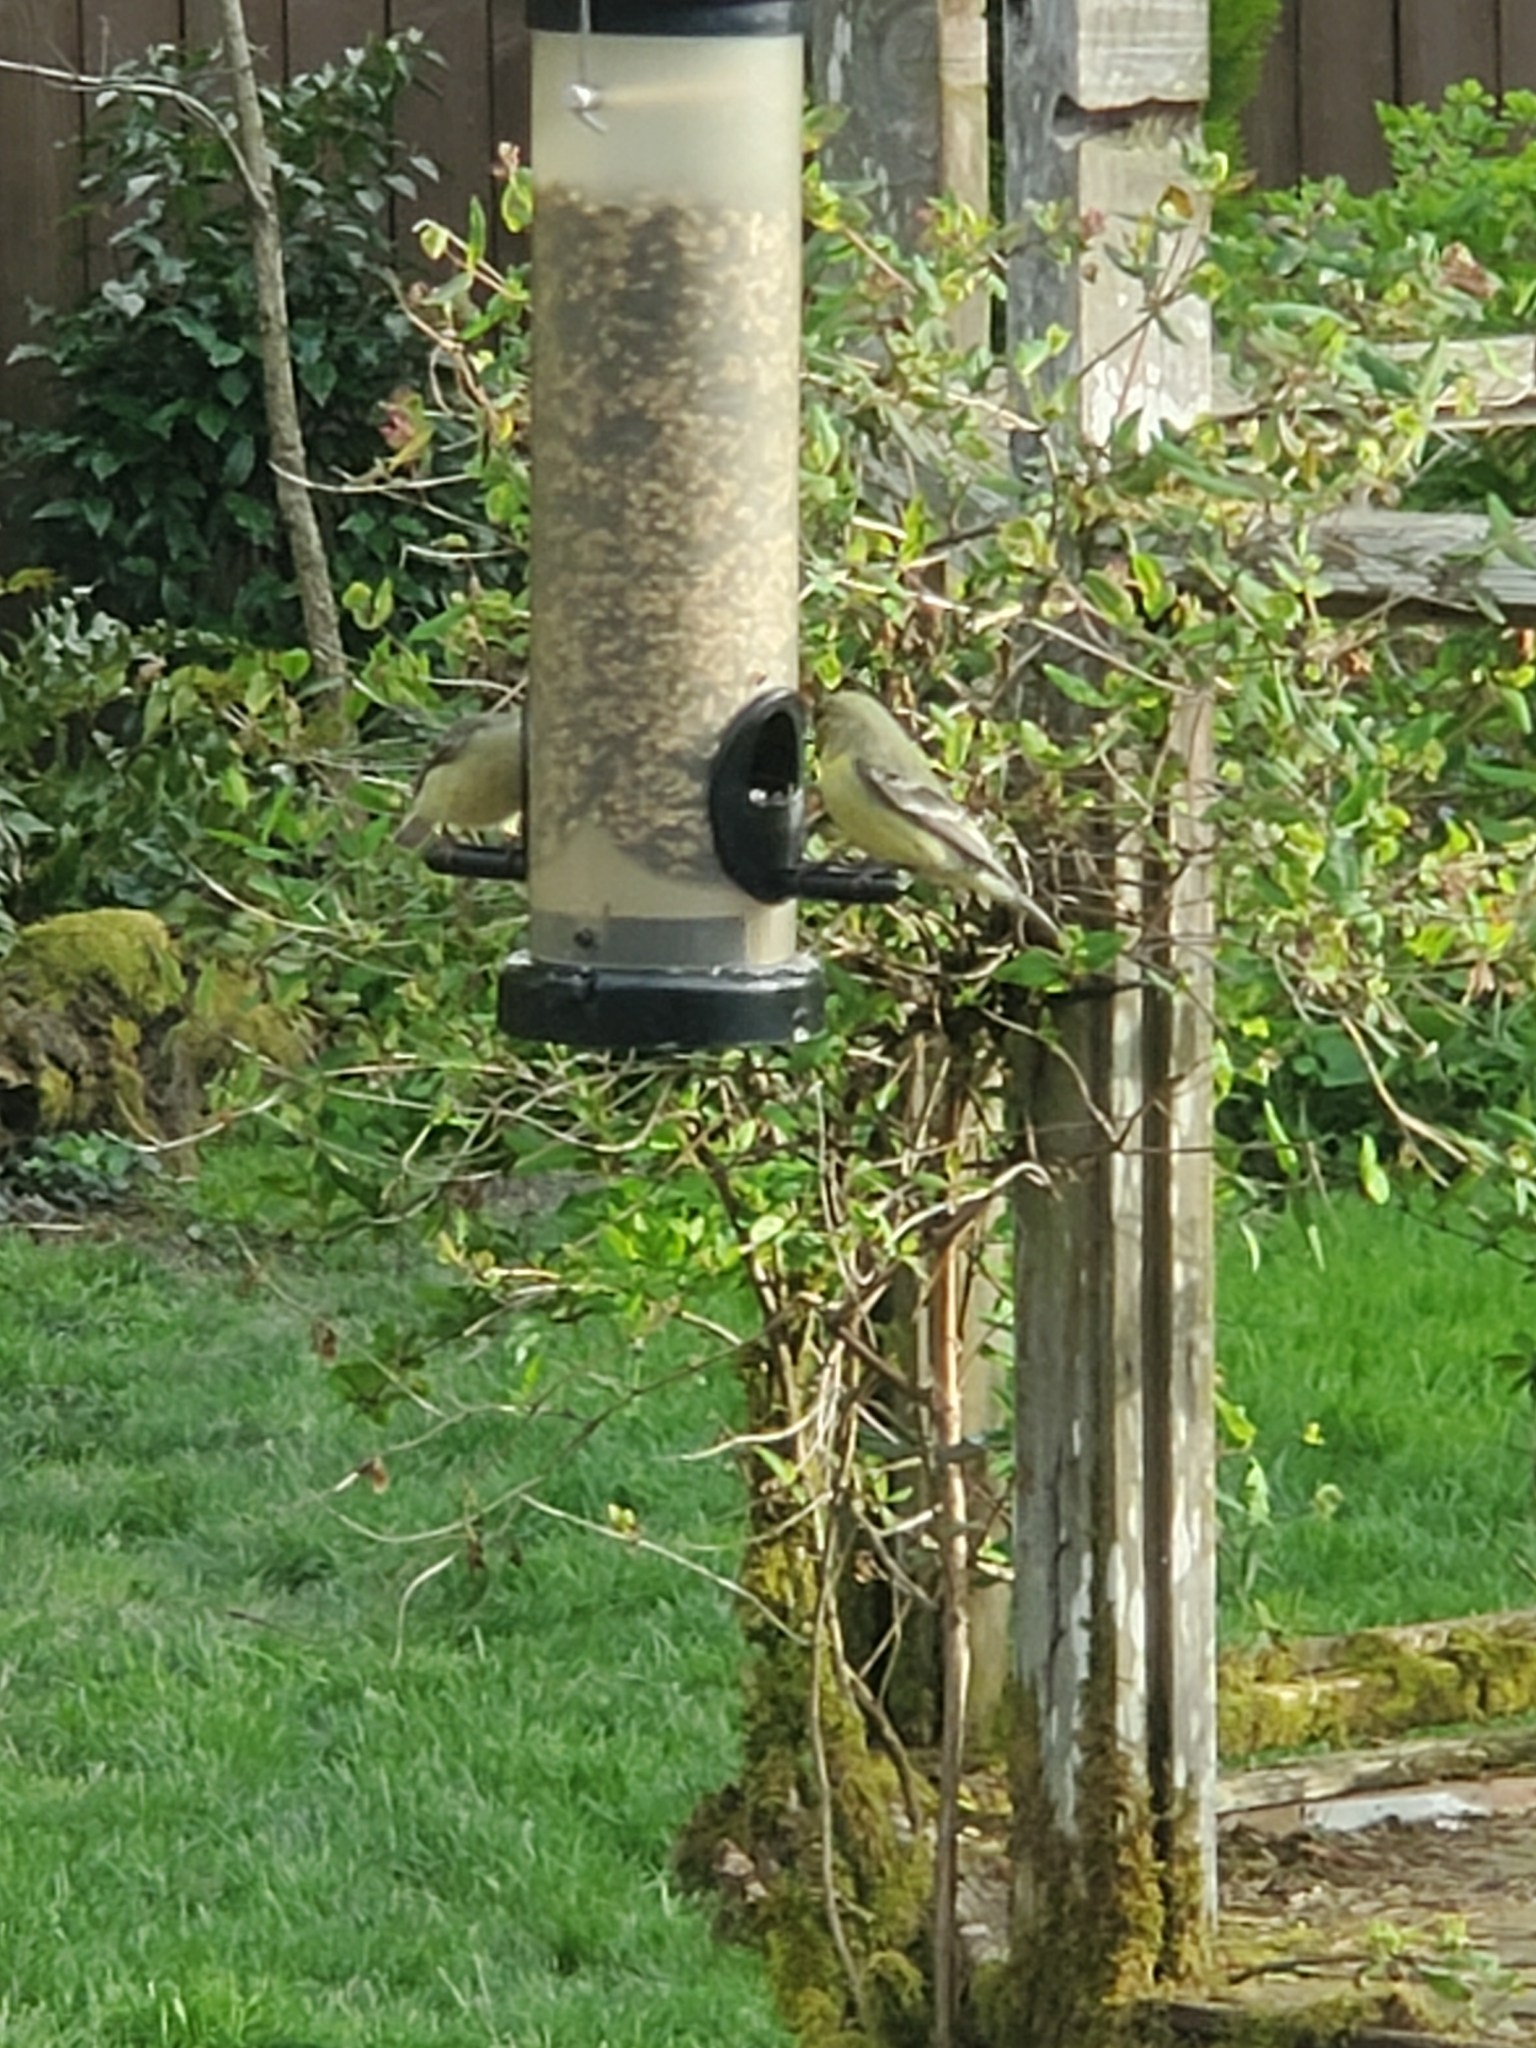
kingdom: Animalia
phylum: Chordata
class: Aves
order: Passeriformes
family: Fringillidae
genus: Spinus
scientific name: Spinus psaltria
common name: Lesser goldfinch
